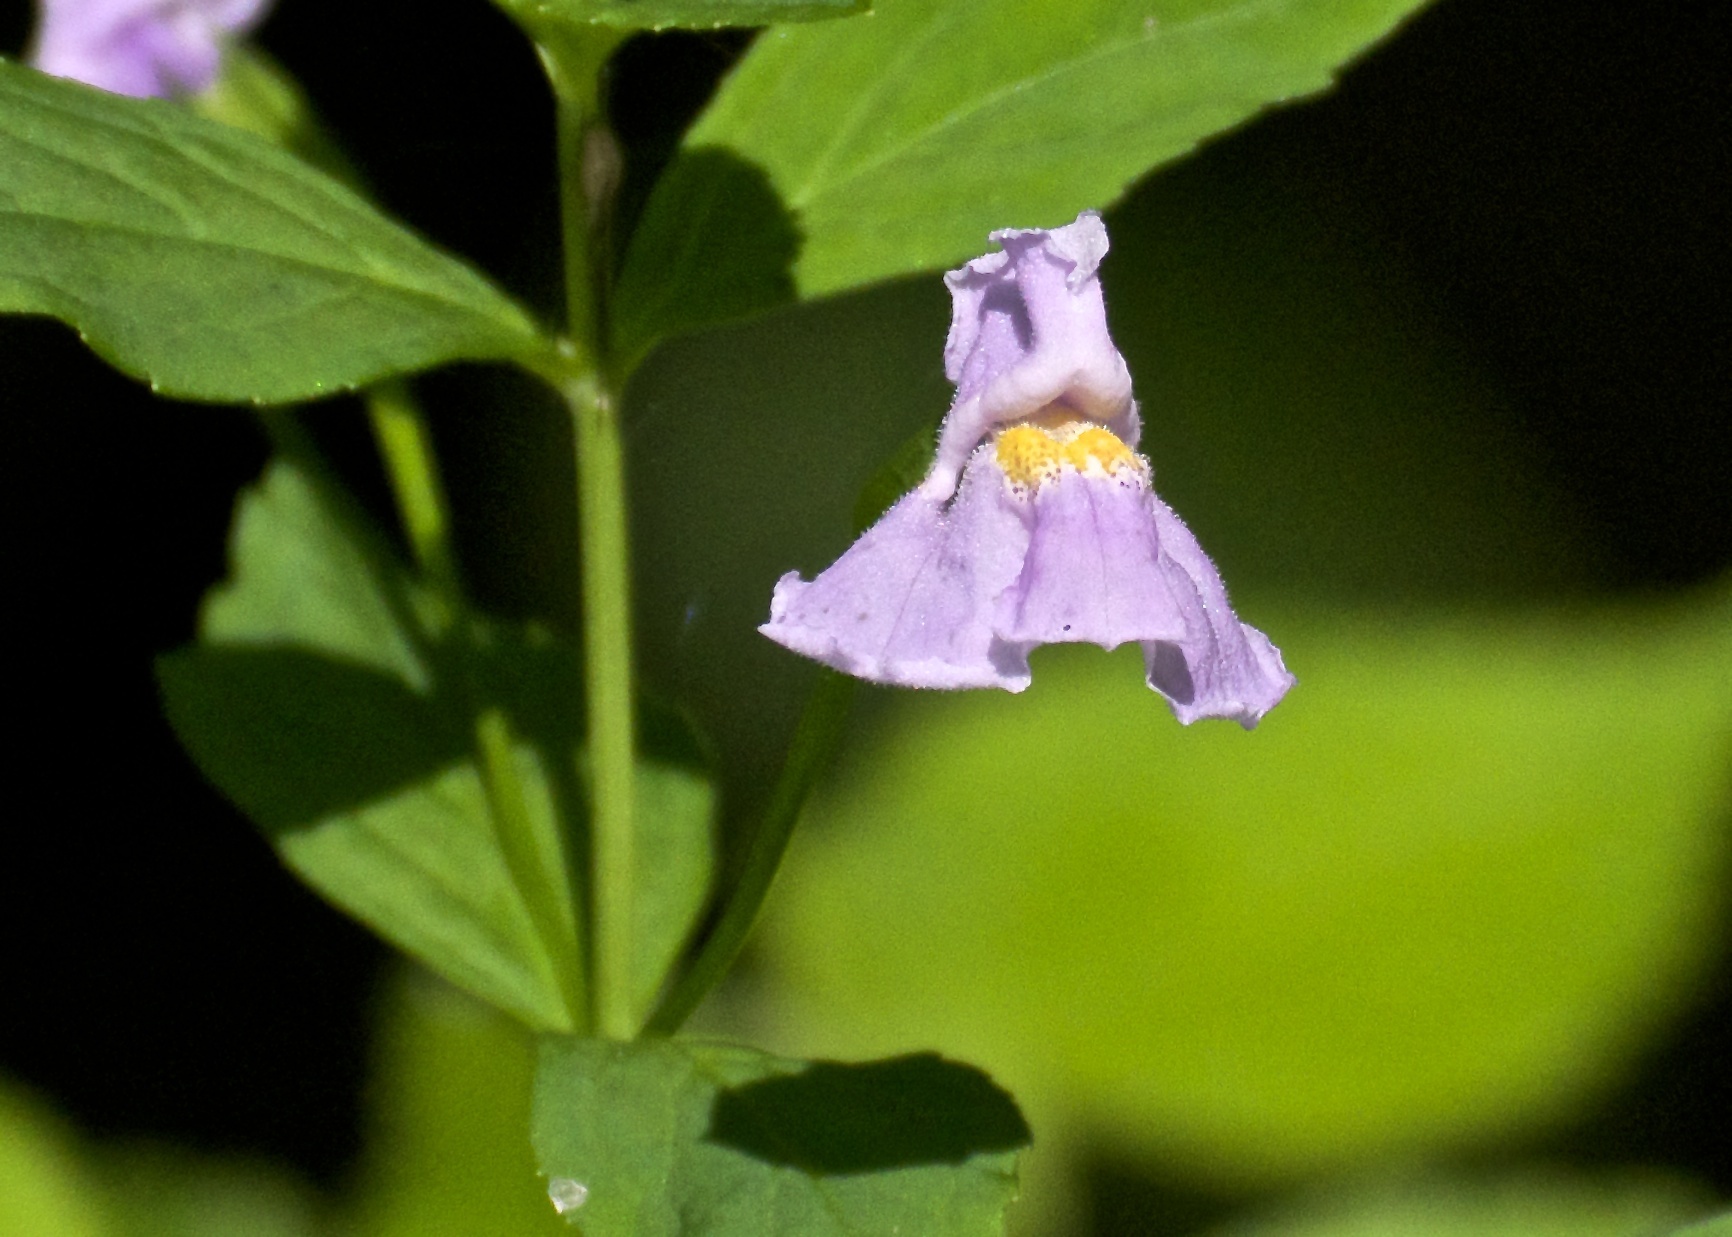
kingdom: Plantae
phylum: Tracheophyta
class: Magnoliopsida
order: Lamiales
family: Phrymaceae
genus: Mimulus
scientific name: Mimulus ringens
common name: Allegheny monkeyflower
